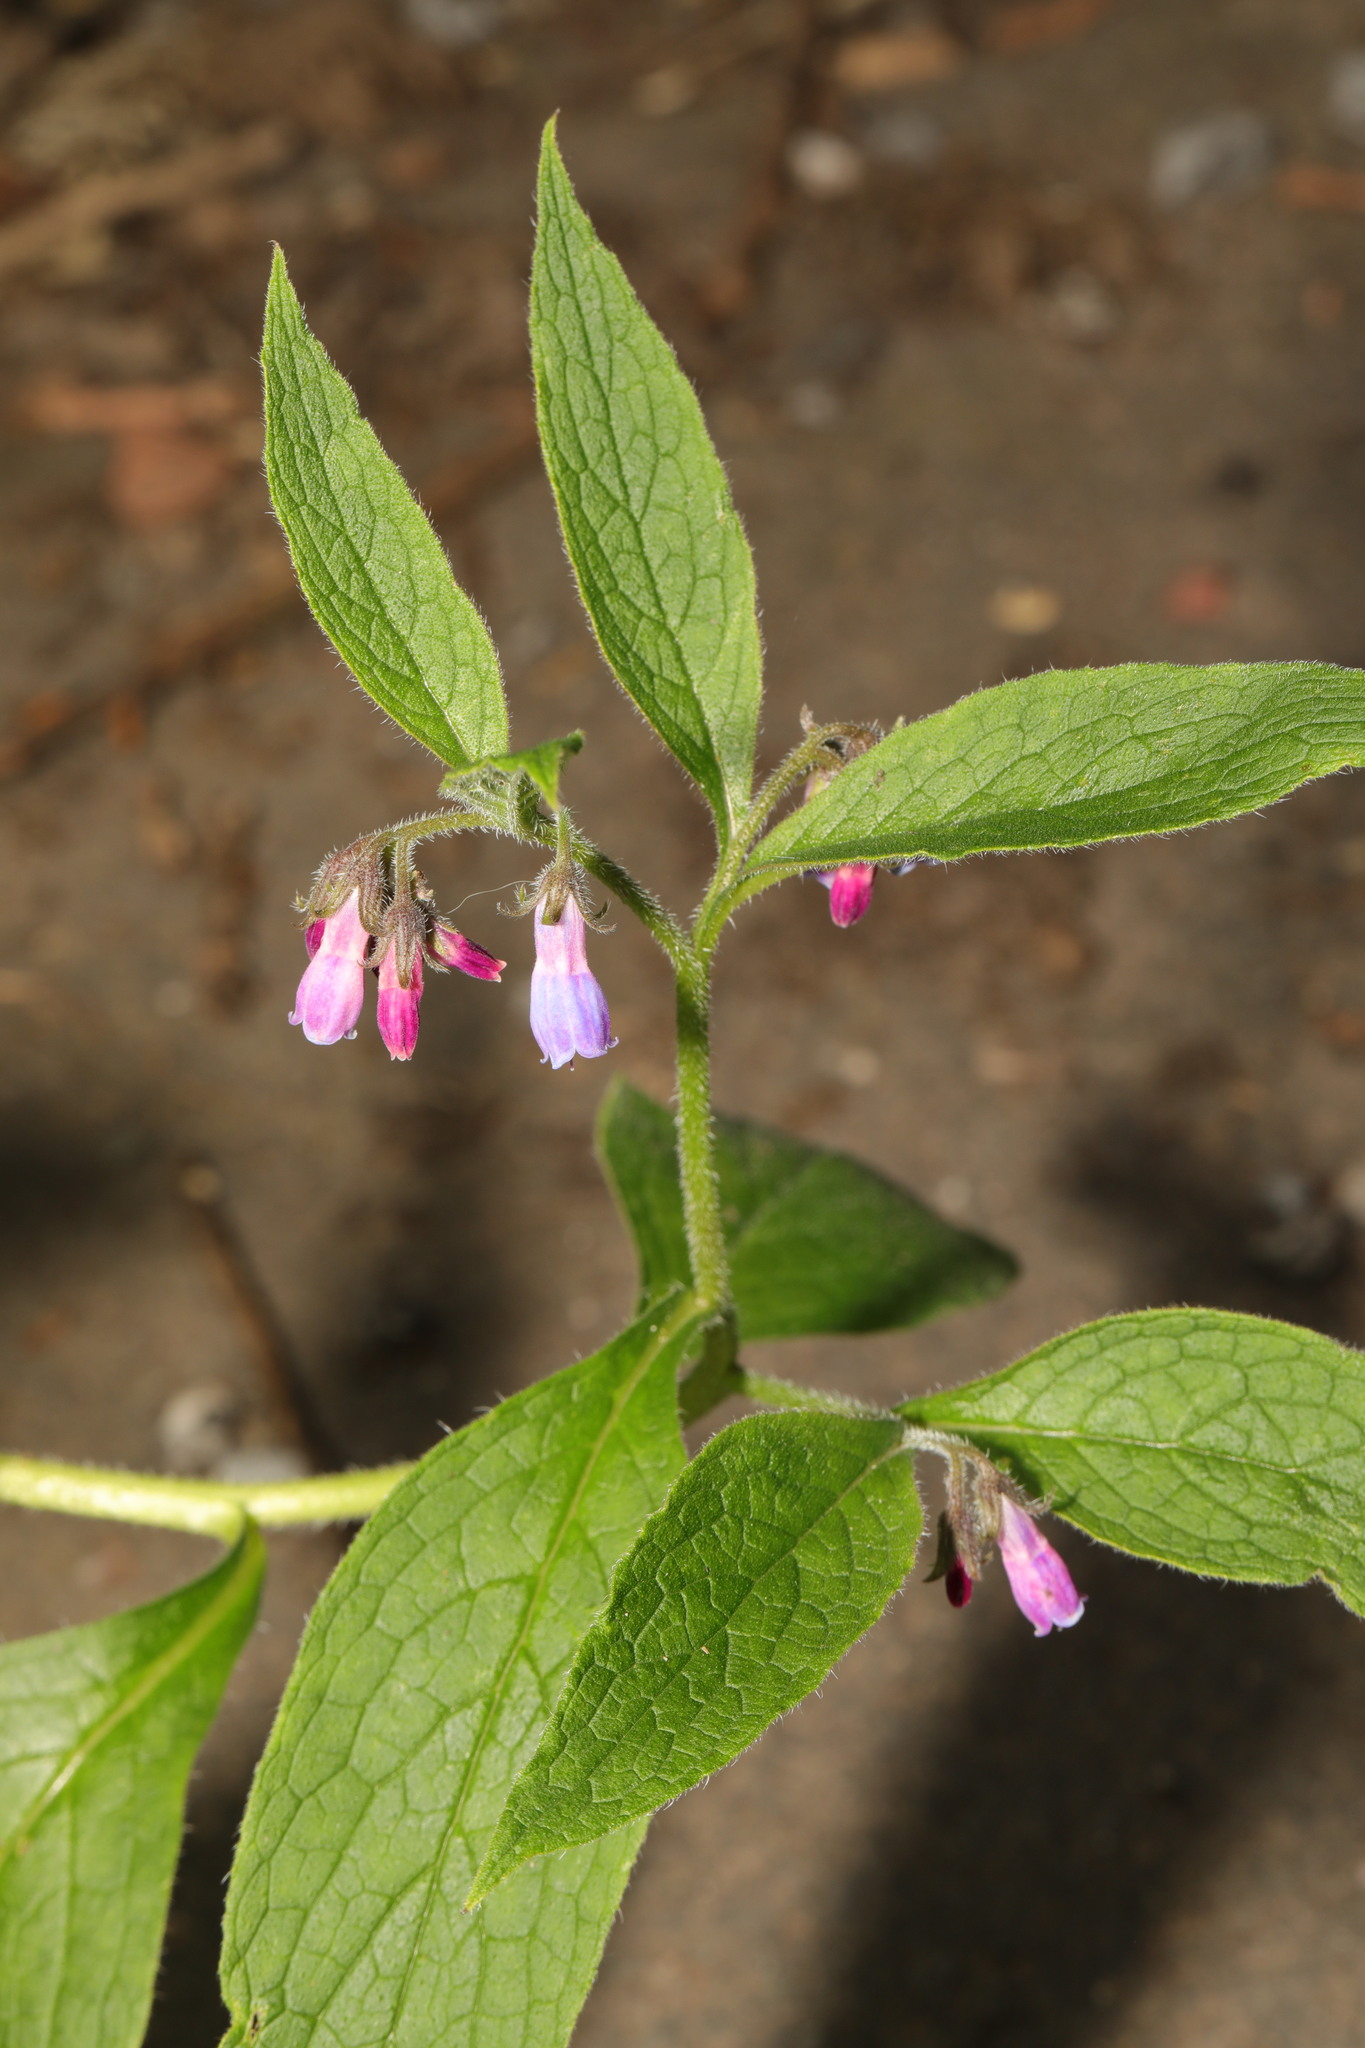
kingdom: Plantae
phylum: Tracheophyta
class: Magnoliopsida
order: Boraginales
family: Boraginaceae
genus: Symphytum
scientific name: Symphytum uplandicum
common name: Russian comfrey
